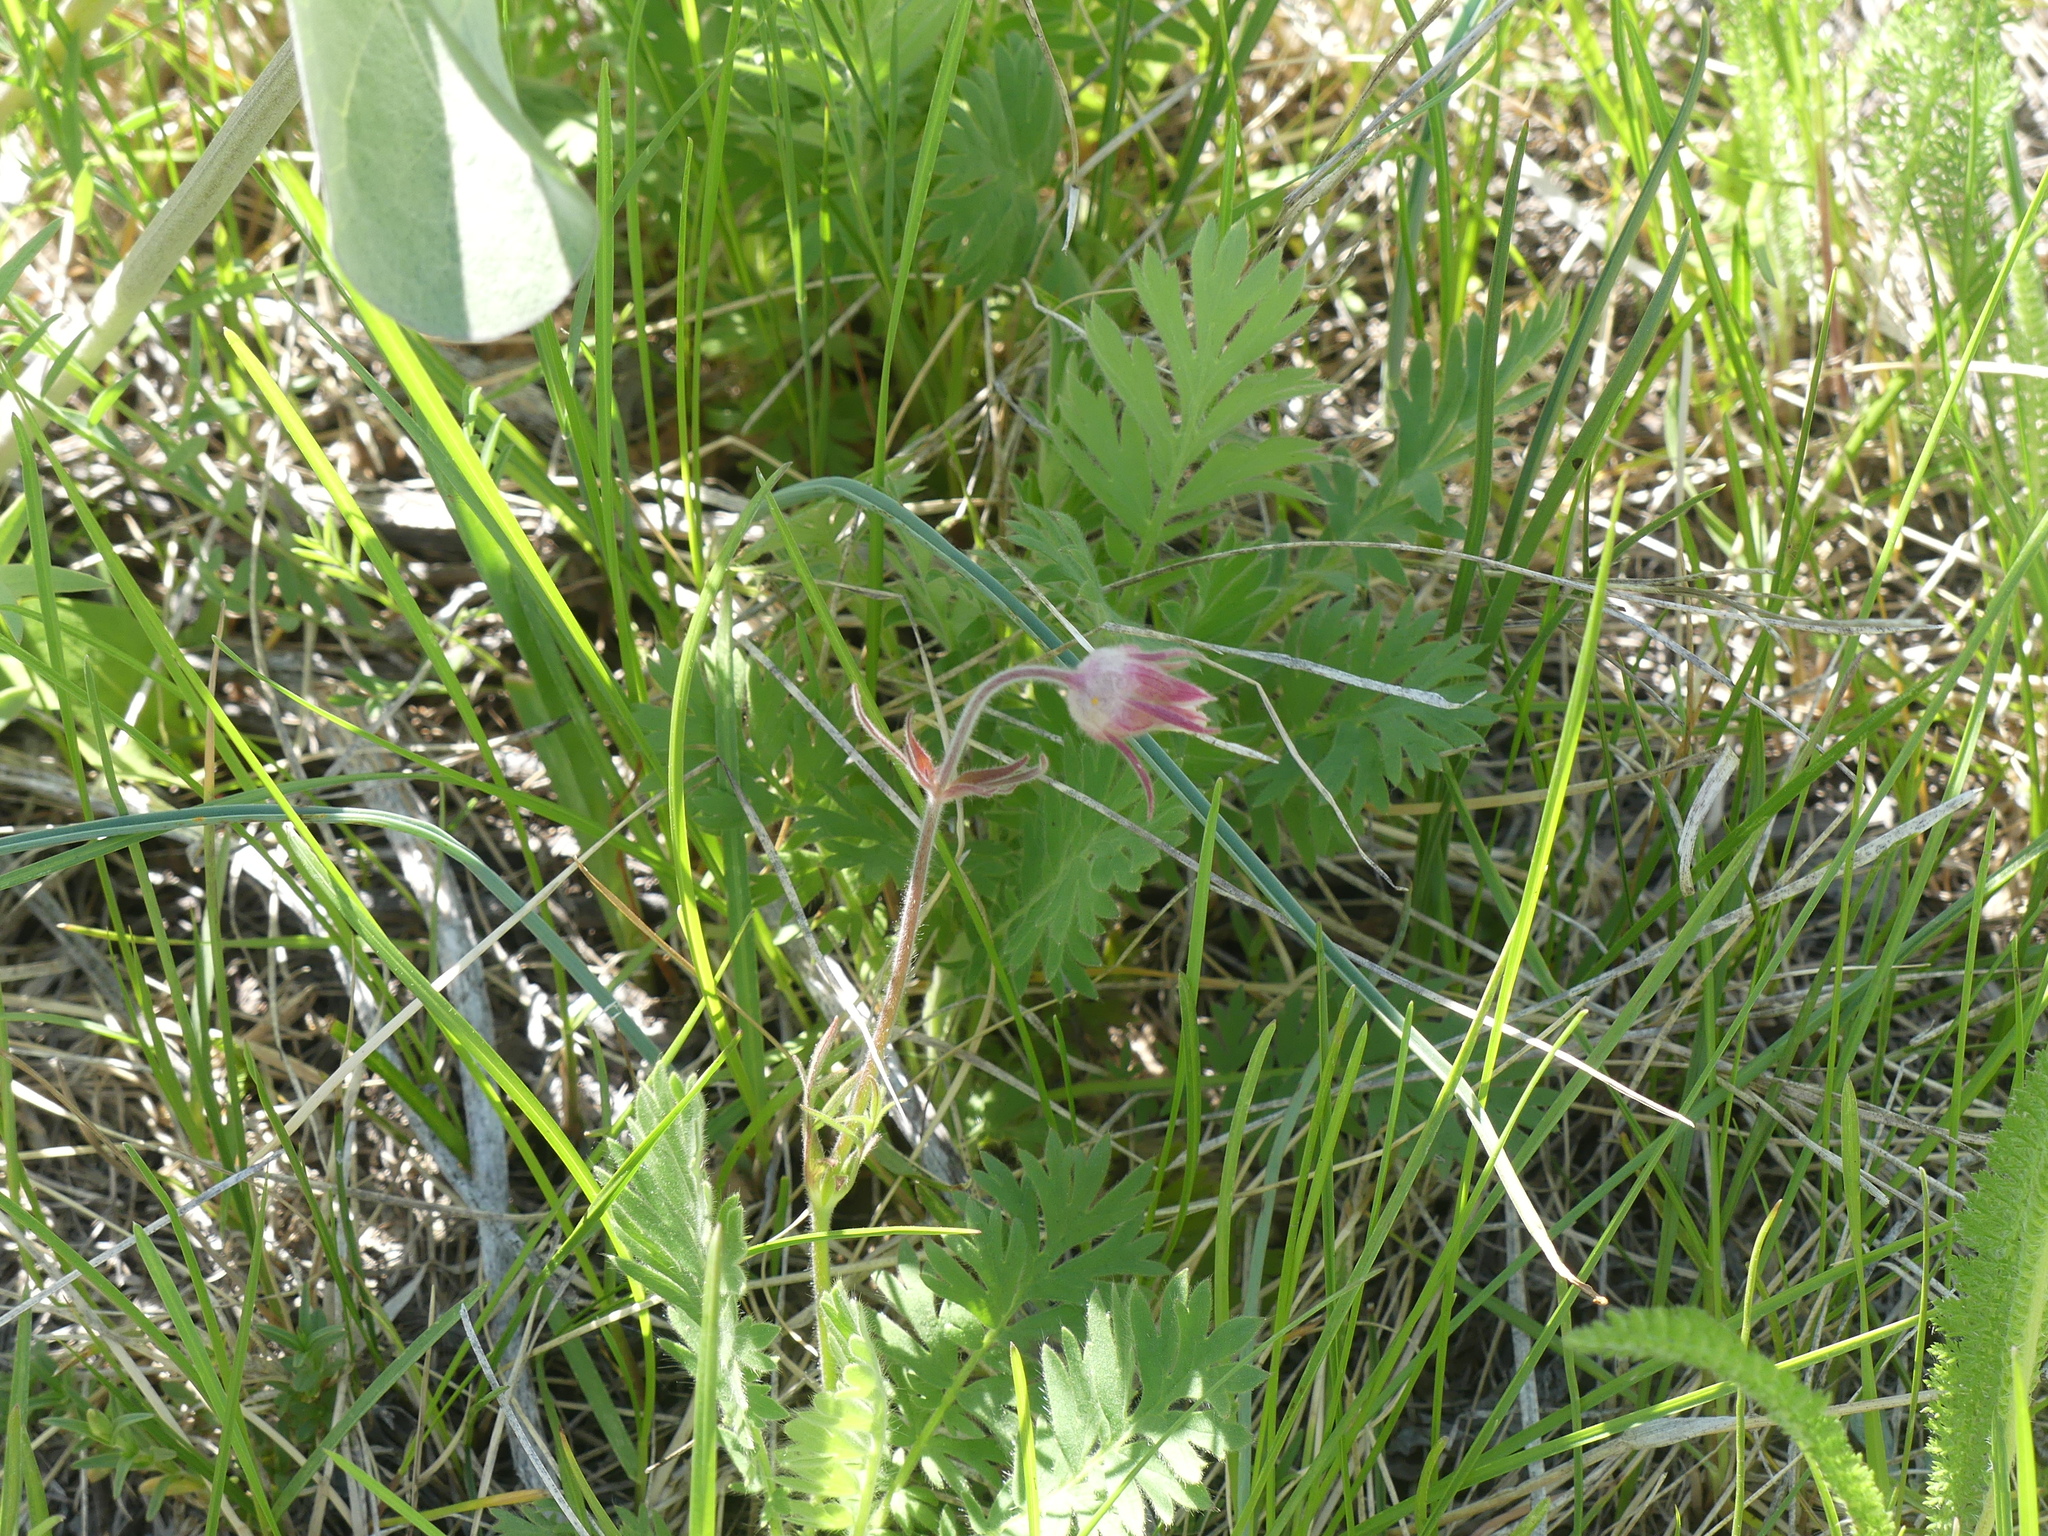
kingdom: Plantae
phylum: Tracheophyta
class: Magnoliopsida
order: Rosales
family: Rosaceae
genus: Geum
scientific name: Geum triflorum
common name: Old man's whiskers
